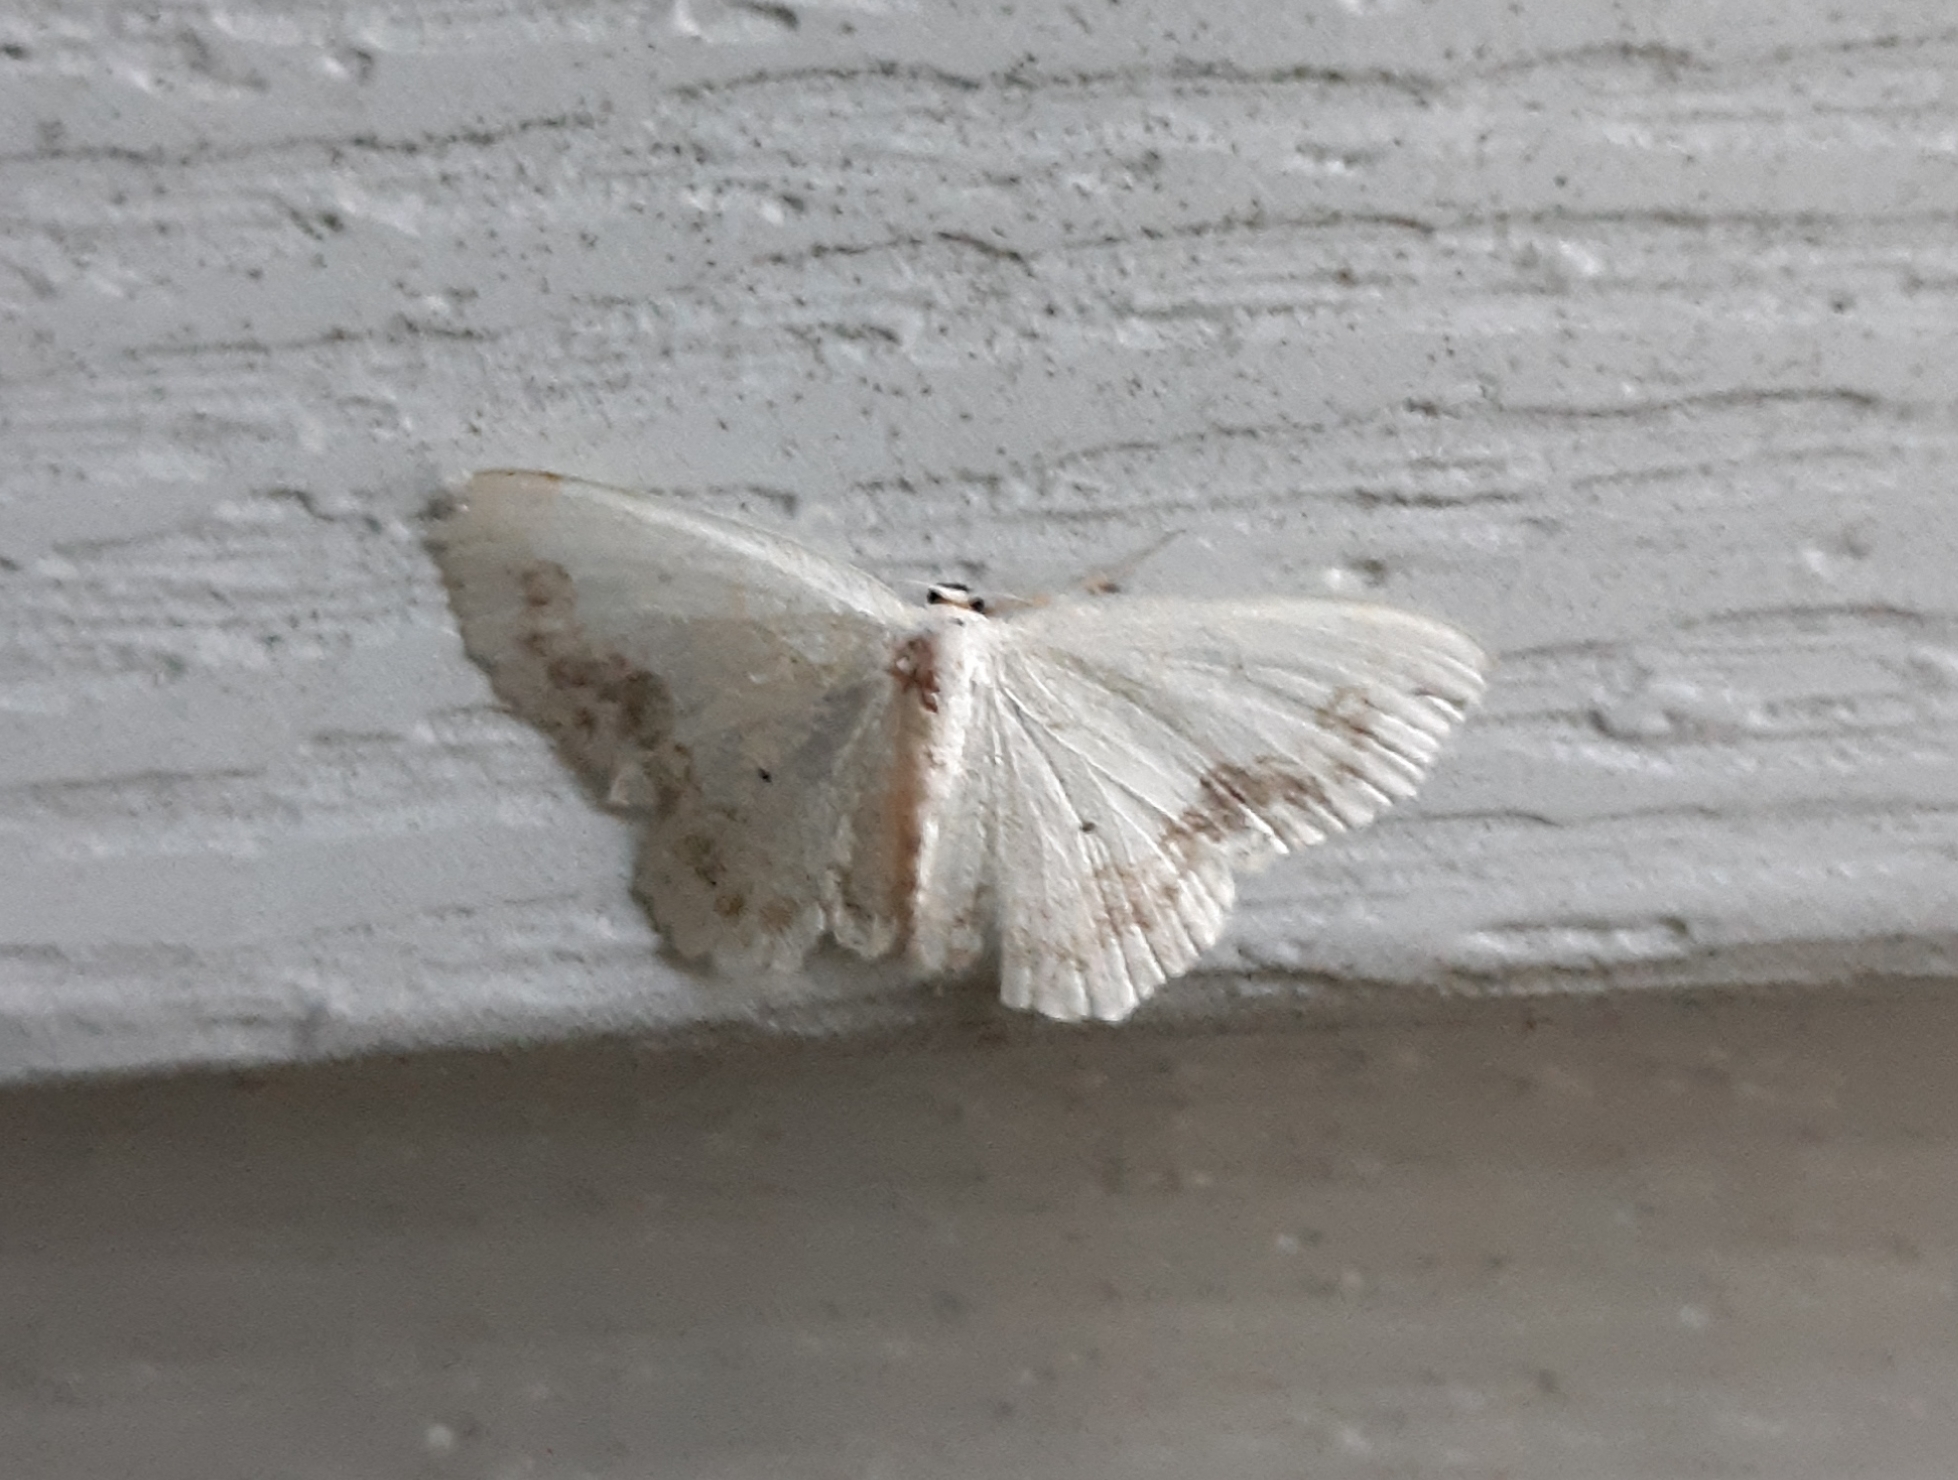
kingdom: Animalia
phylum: Arthropoda
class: Insecta
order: Lepidoptera
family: Geometridae
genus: Scopula
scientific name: Scopula limboundata
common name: Large lace border
